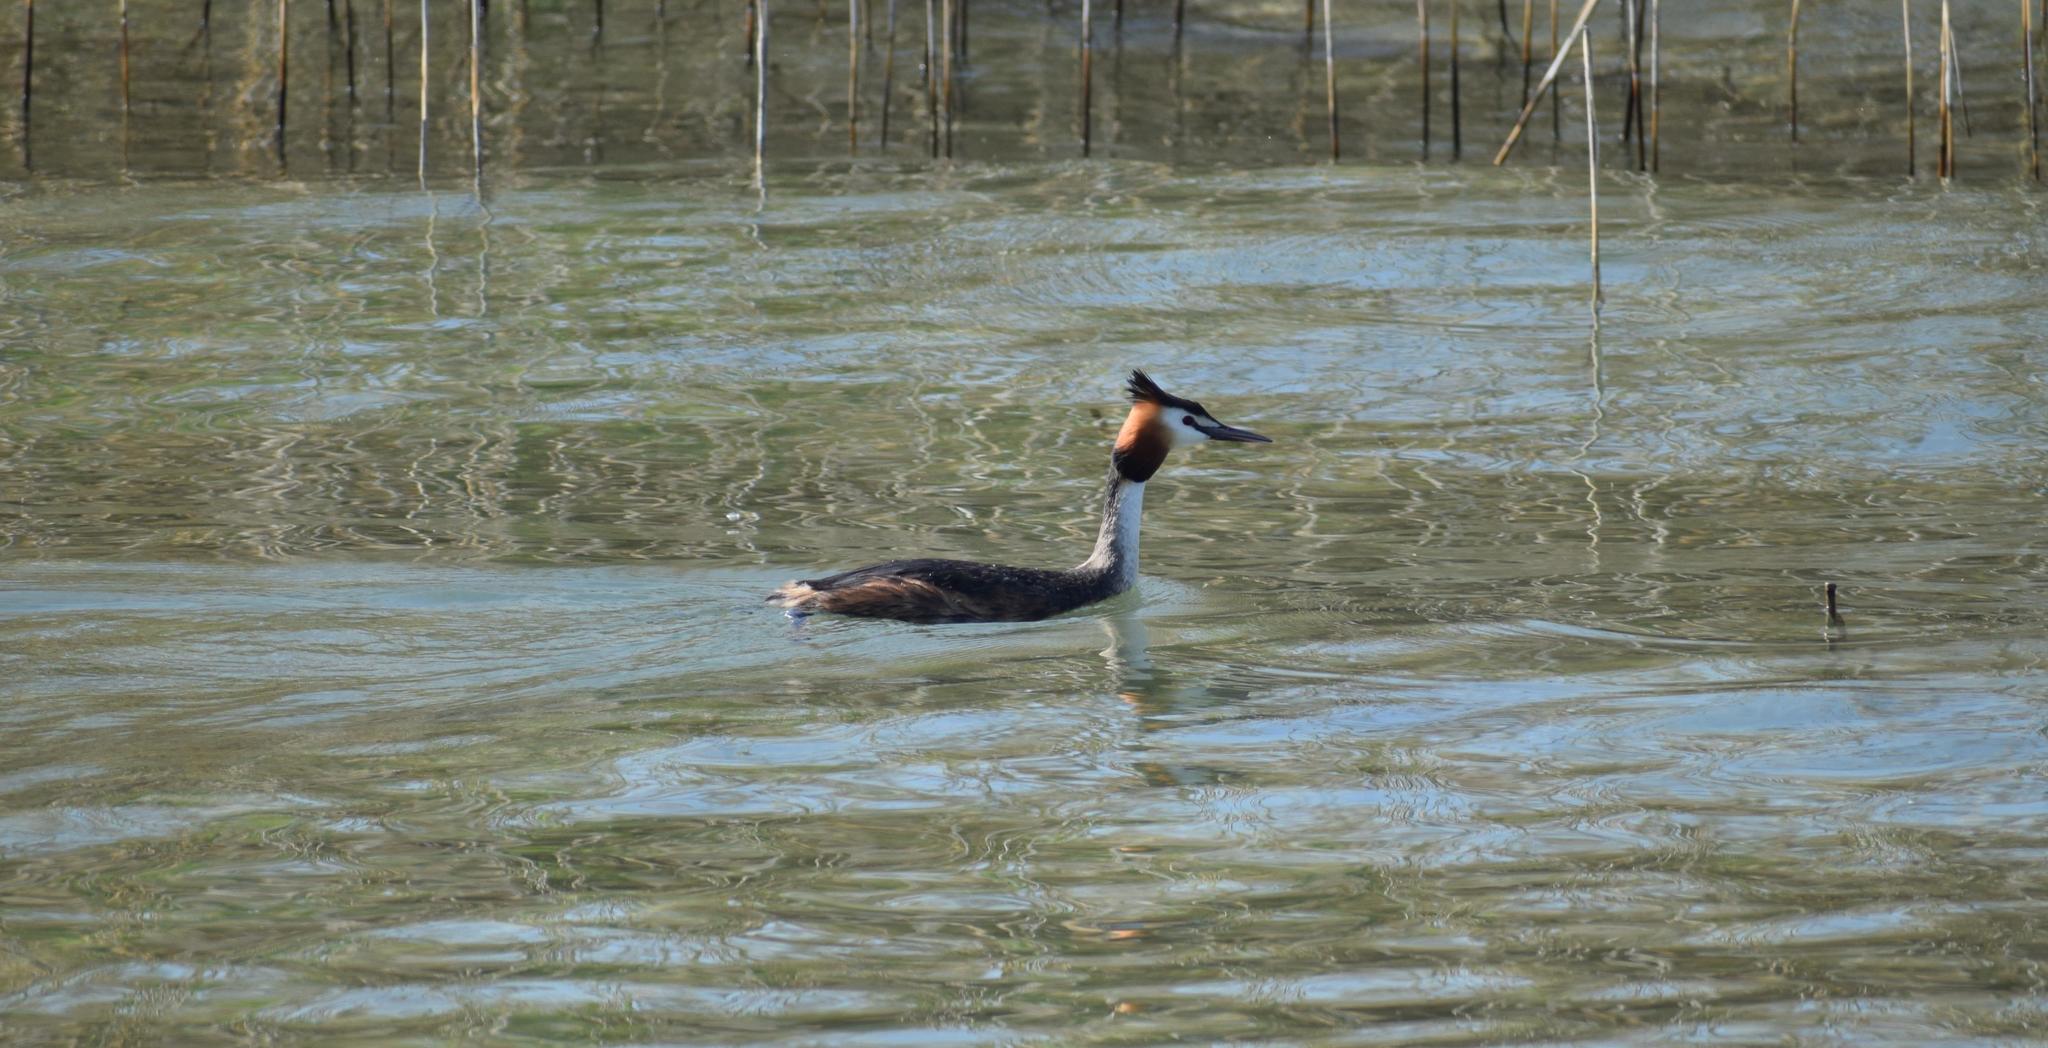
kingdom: Animalia
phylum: Chordata
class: Aves
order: Podicipediformes
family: Podicipedidae
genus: Podiceps
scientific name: Podiceps cristatus
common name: Great crested grebe
